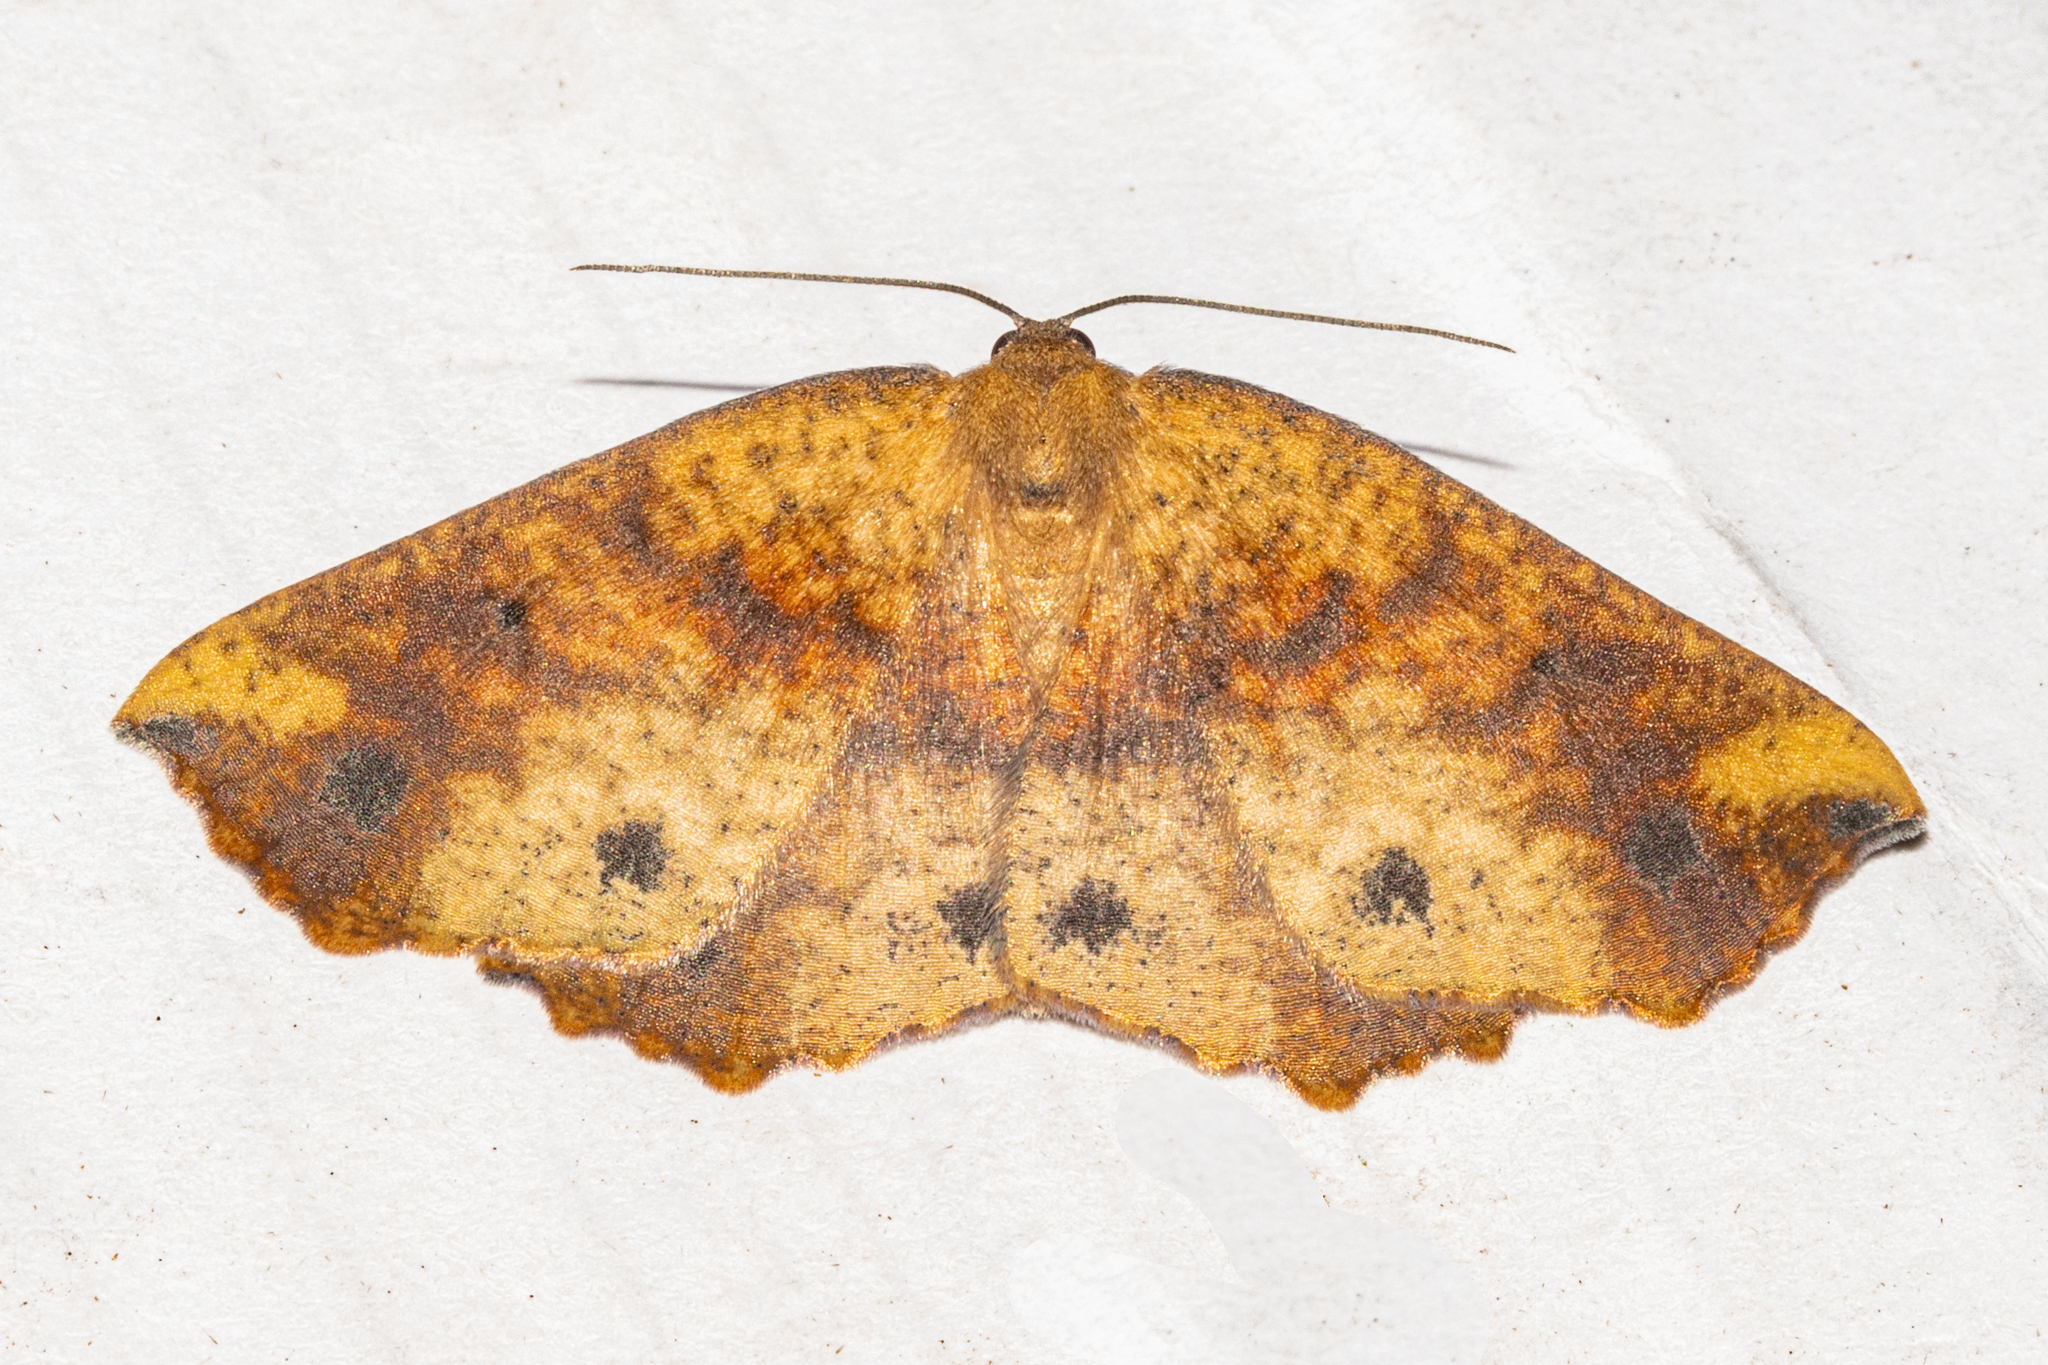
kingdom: Animalia
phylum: Arthropoda
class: Insecta
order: Lepidoptera
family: Geometridae
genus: Xyridacma
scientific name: Xyridacma ustaria
